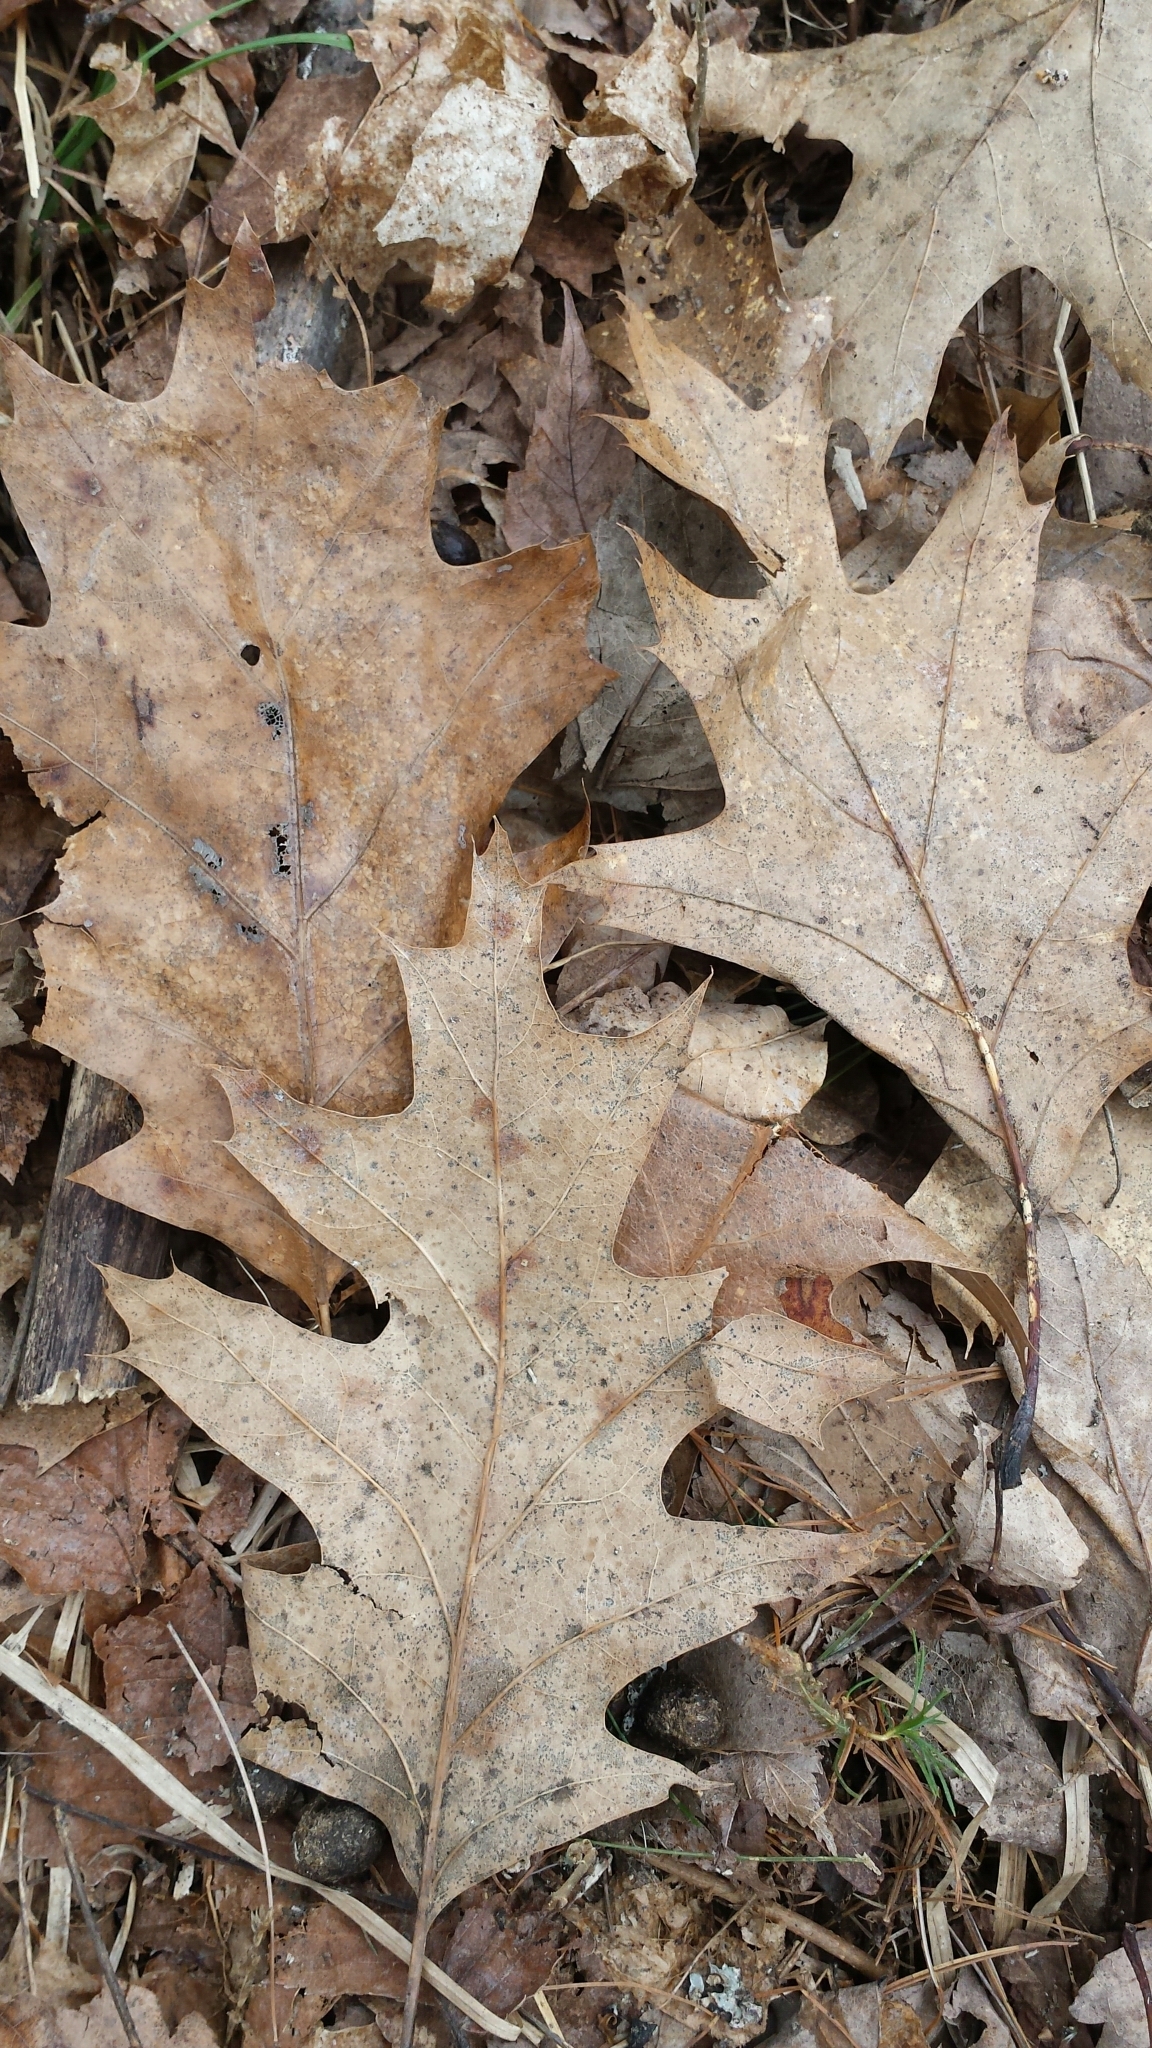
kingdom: Plantae
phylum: Tracheophyta
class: Magnoliopsida
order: Fagales
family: Fagaceae
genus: Quercus
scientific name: Quercus rubra
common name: Red oak
